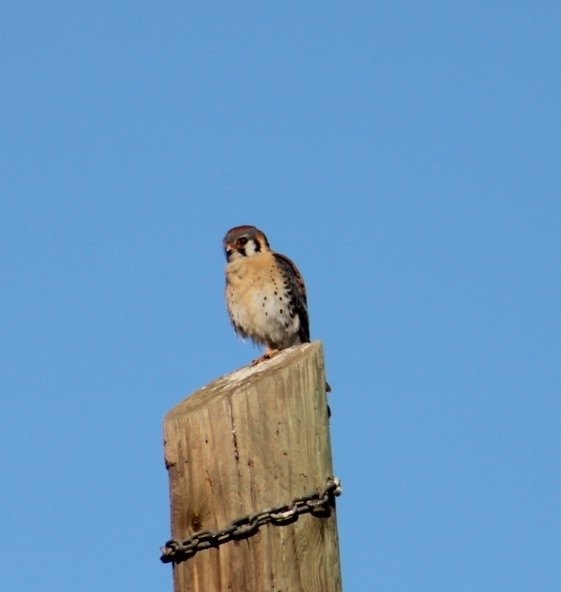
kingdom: Animalia
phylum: Chordata
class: Aves
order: Falconiformes
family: Falconidae
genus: Falco
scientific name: Falco sparverius
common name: American kestrel
